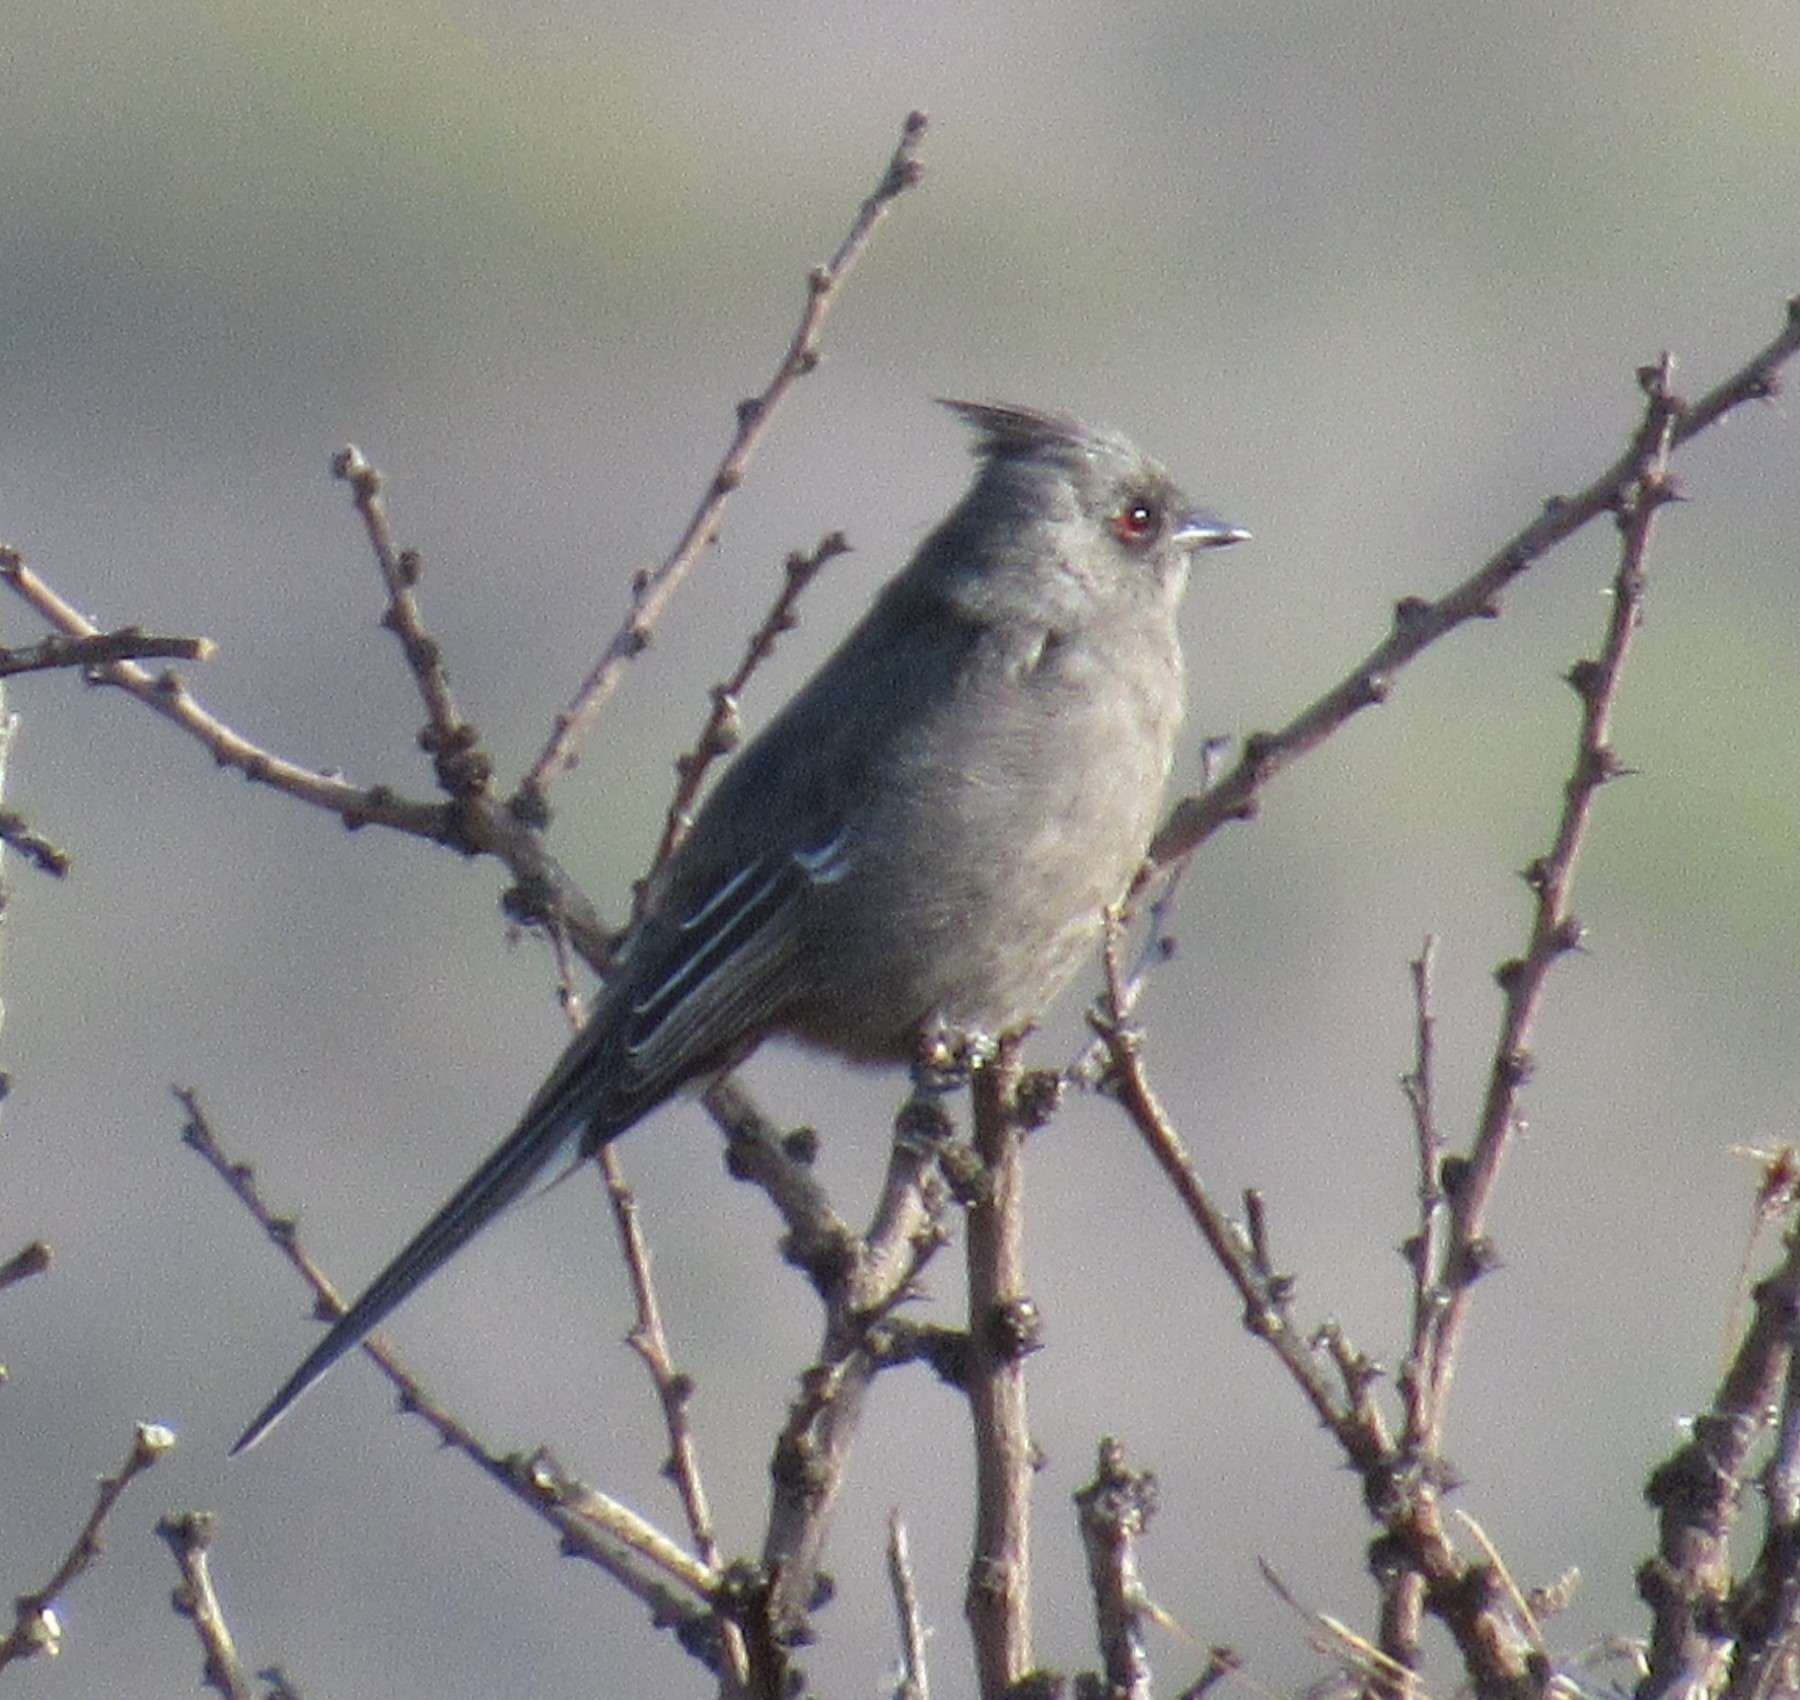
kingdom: Animalia
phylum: Chordata
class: Aves
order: Passeriformes
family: Ptilogonatidae
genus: Phainopepla
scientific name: Phainopepla nitens
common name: Phainopepla
